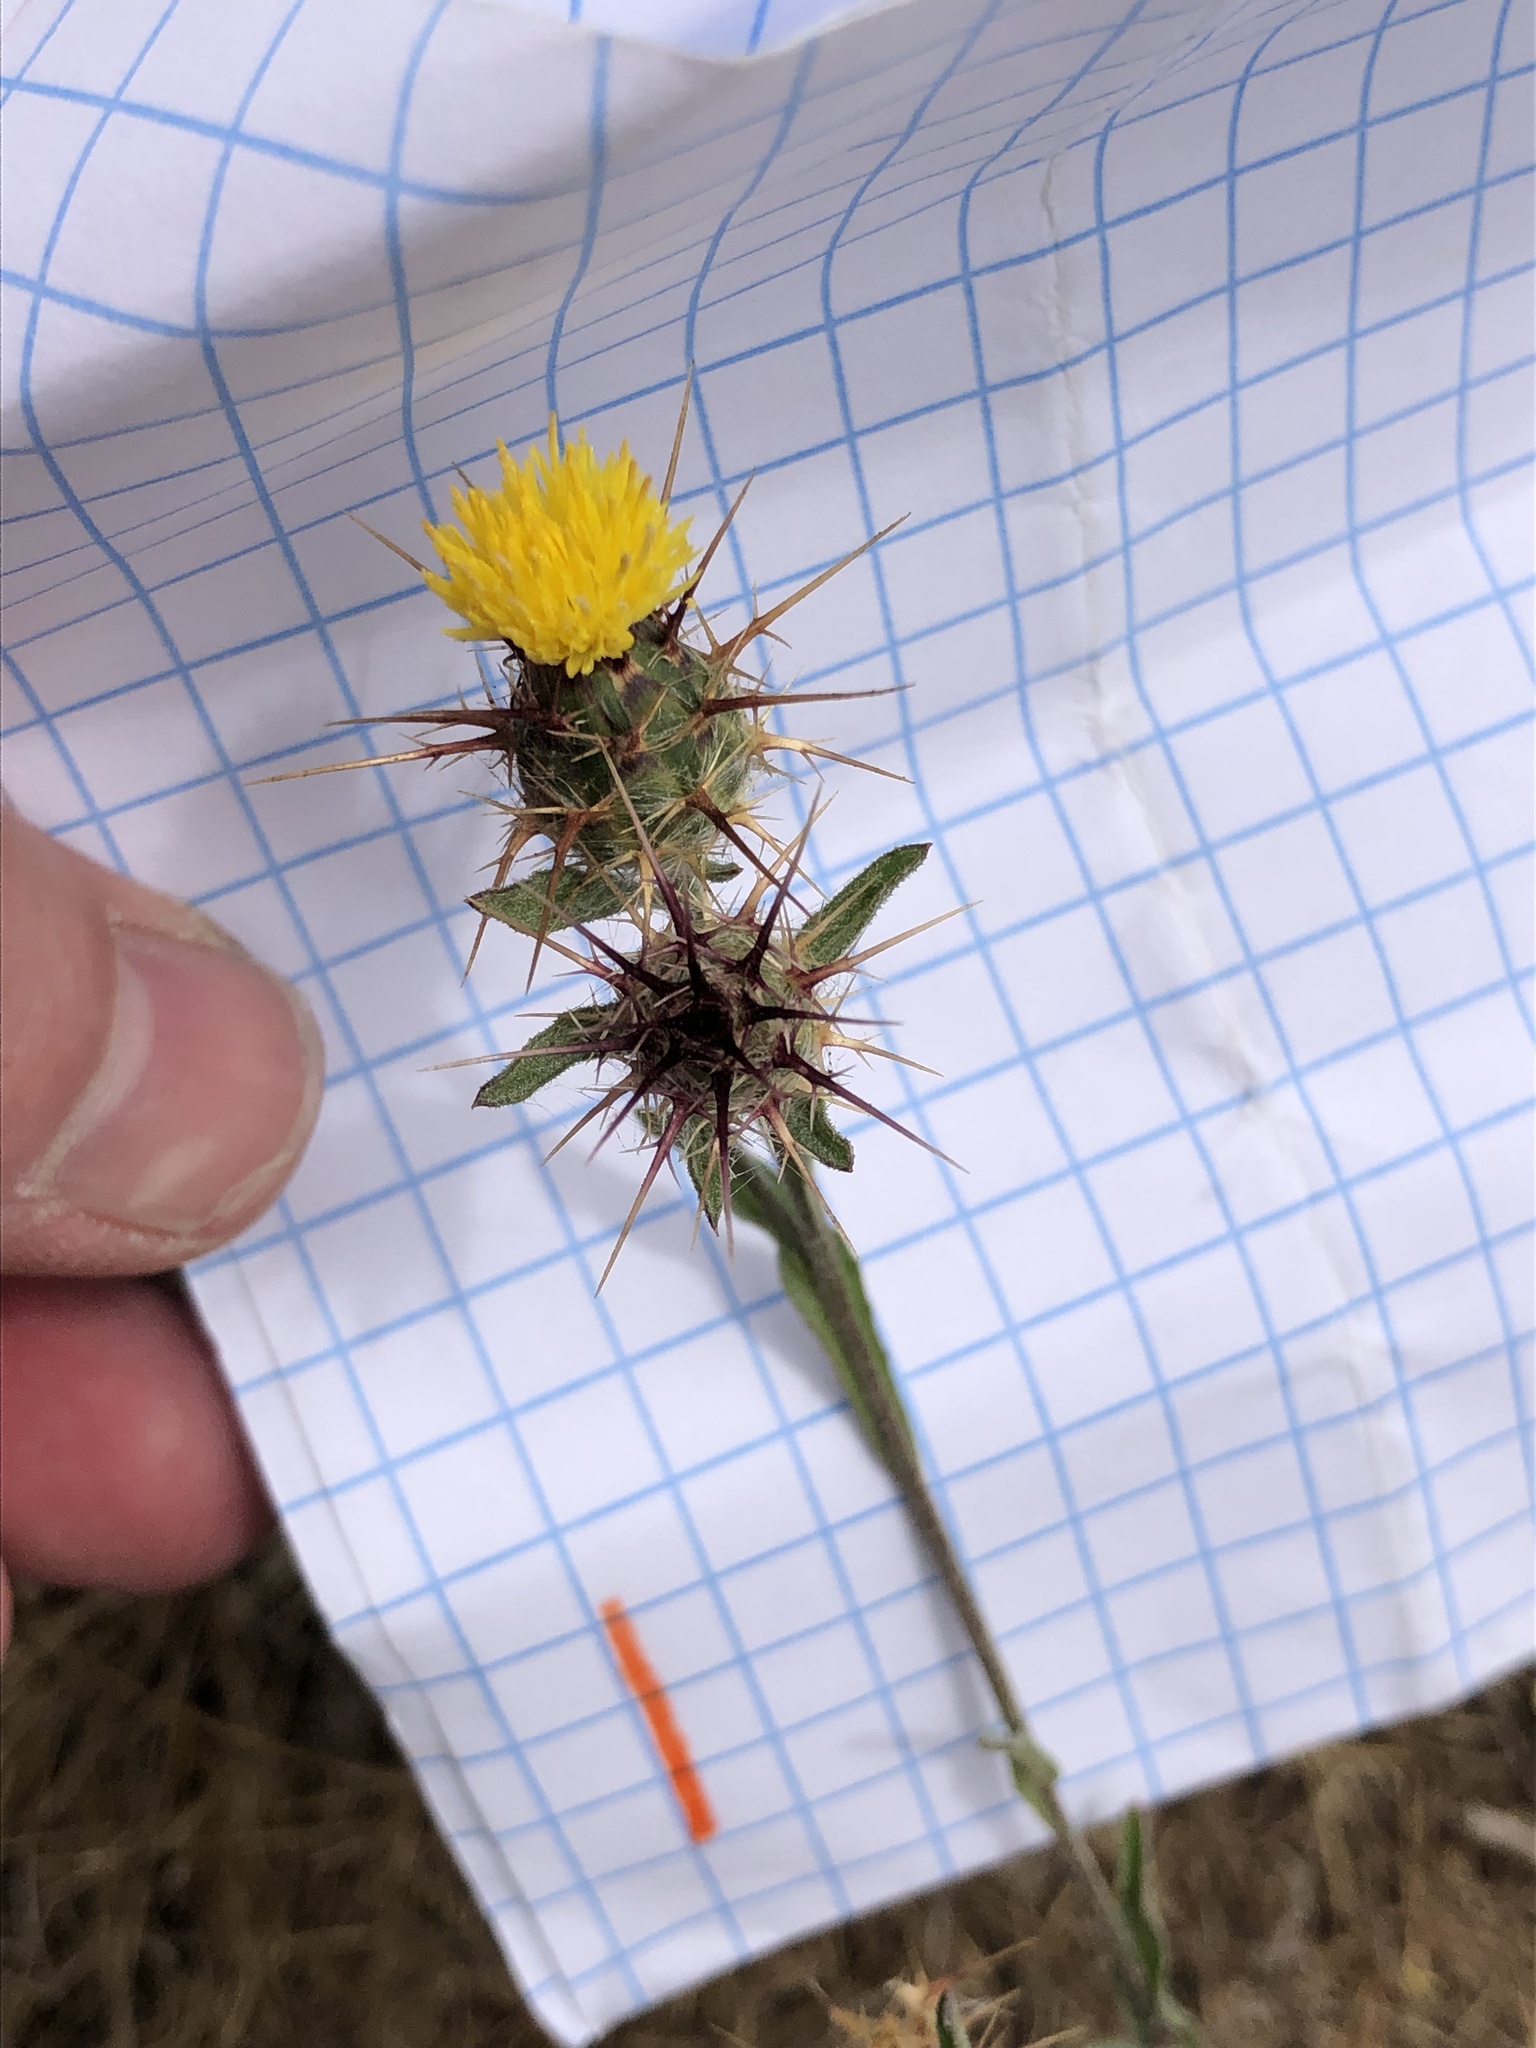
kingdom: Plantae
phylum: Tracheophyta
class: Magnoliopsida
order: Asterales
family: Asteraceae
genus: Centaurea
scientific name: Centaurea melitensis
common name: Maltese star-thistle
